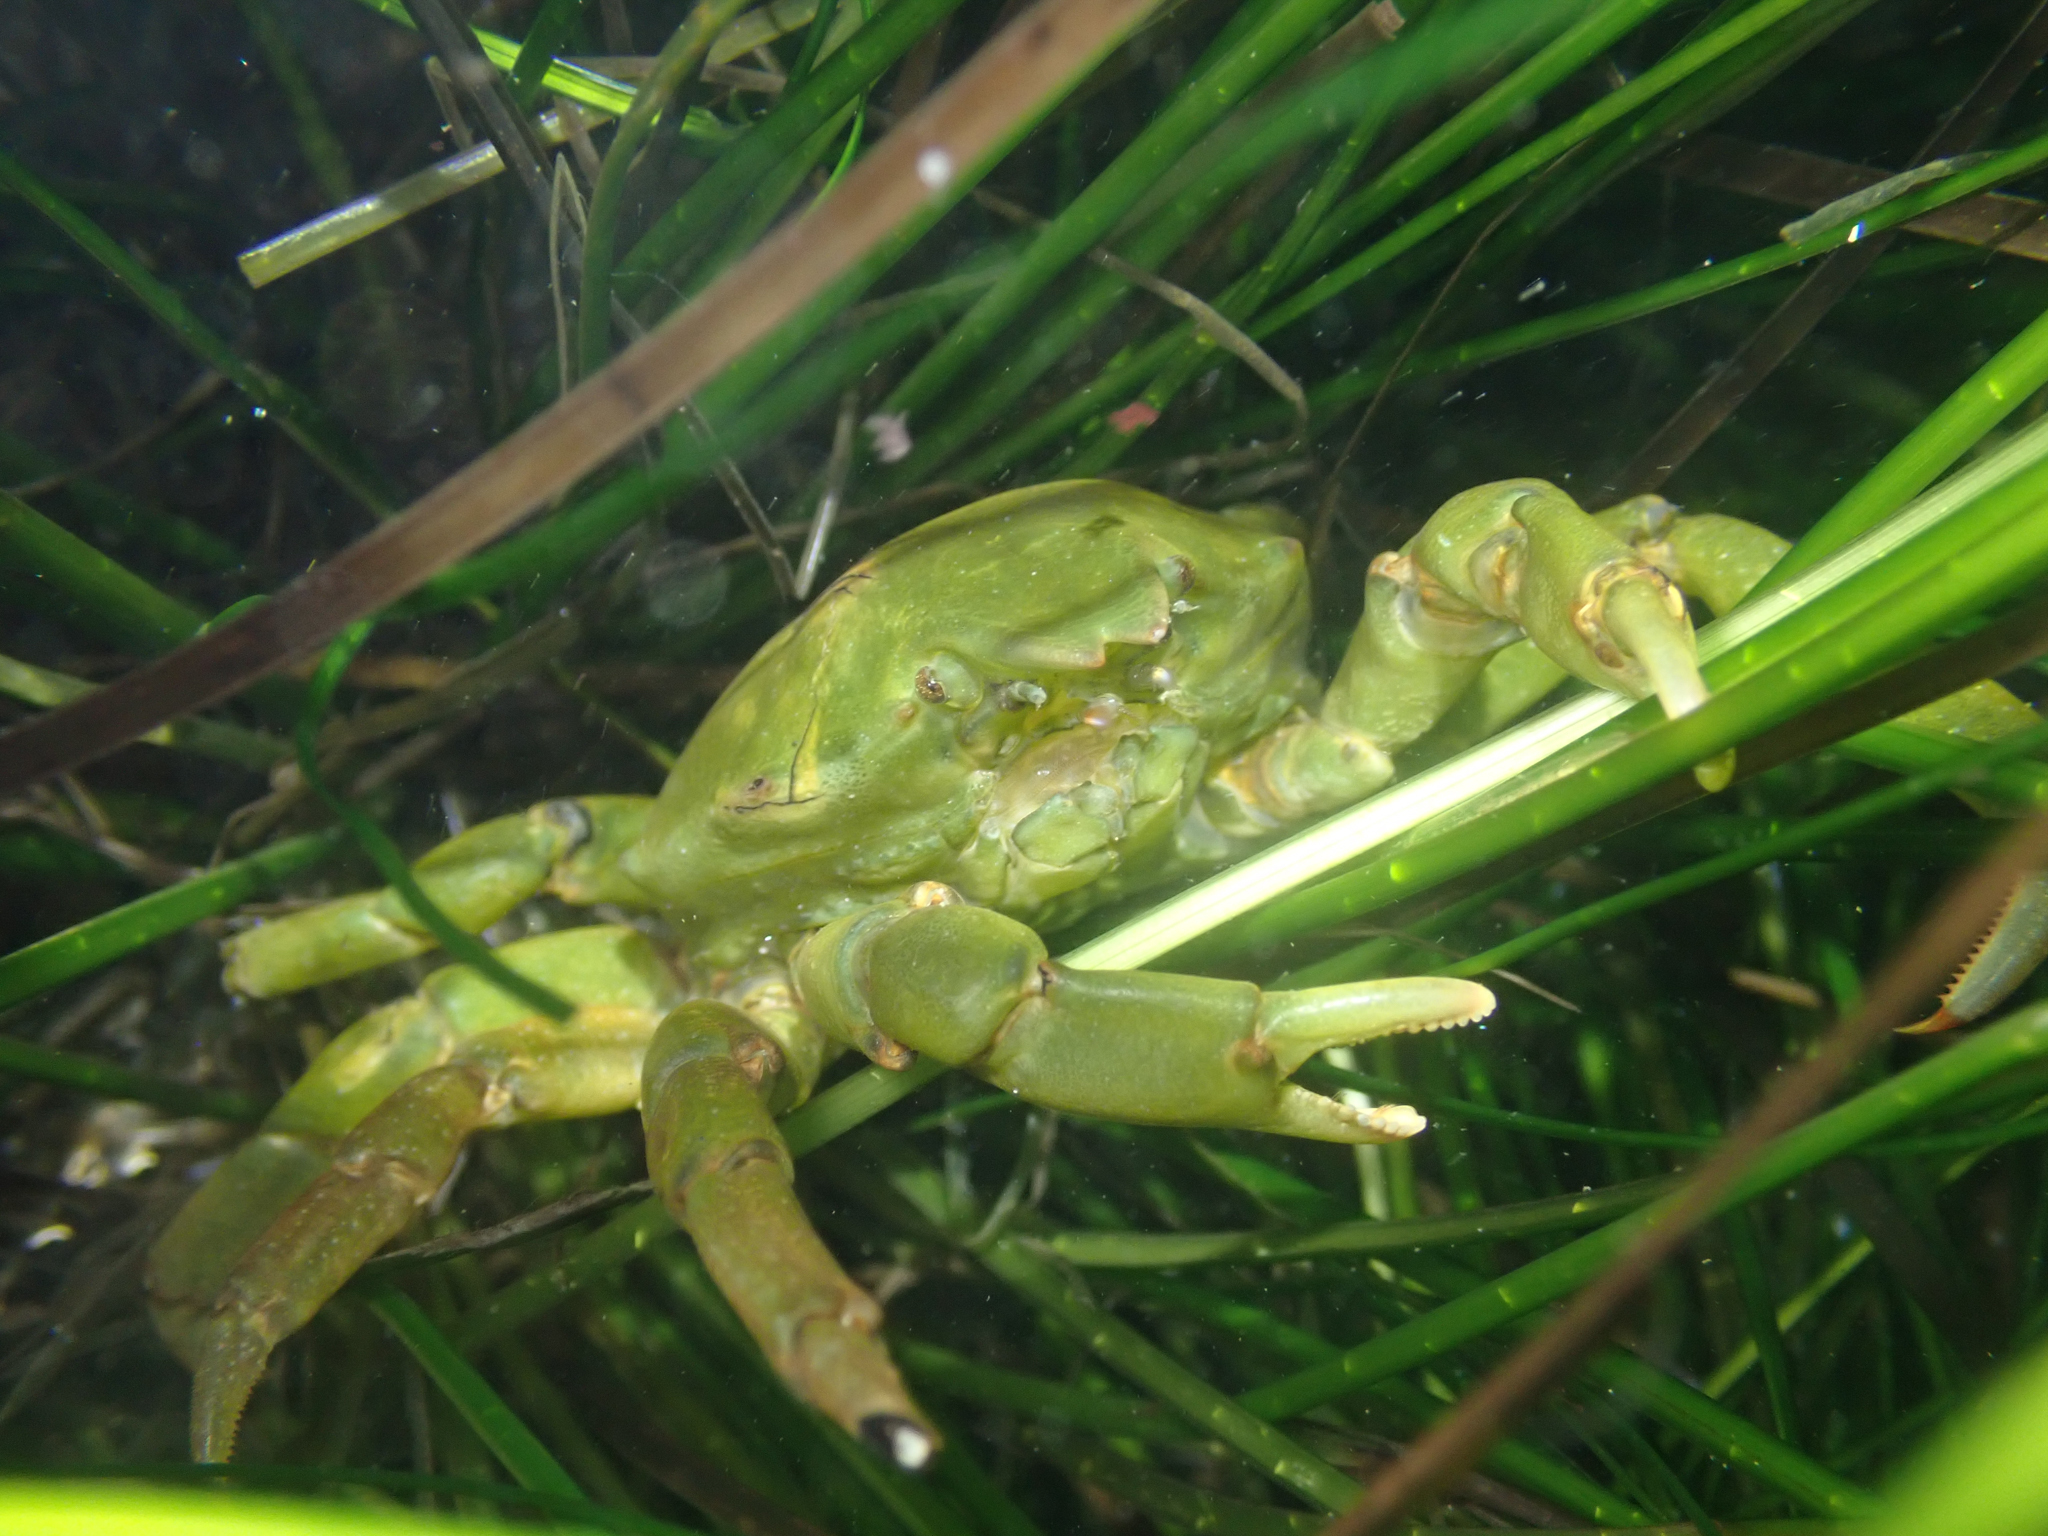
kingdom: Animalia
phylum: Arthropoda
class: Malacostraca
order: Decapoda
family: Epialtidae
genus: Taliepus
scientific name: Taliepus nuttallii
